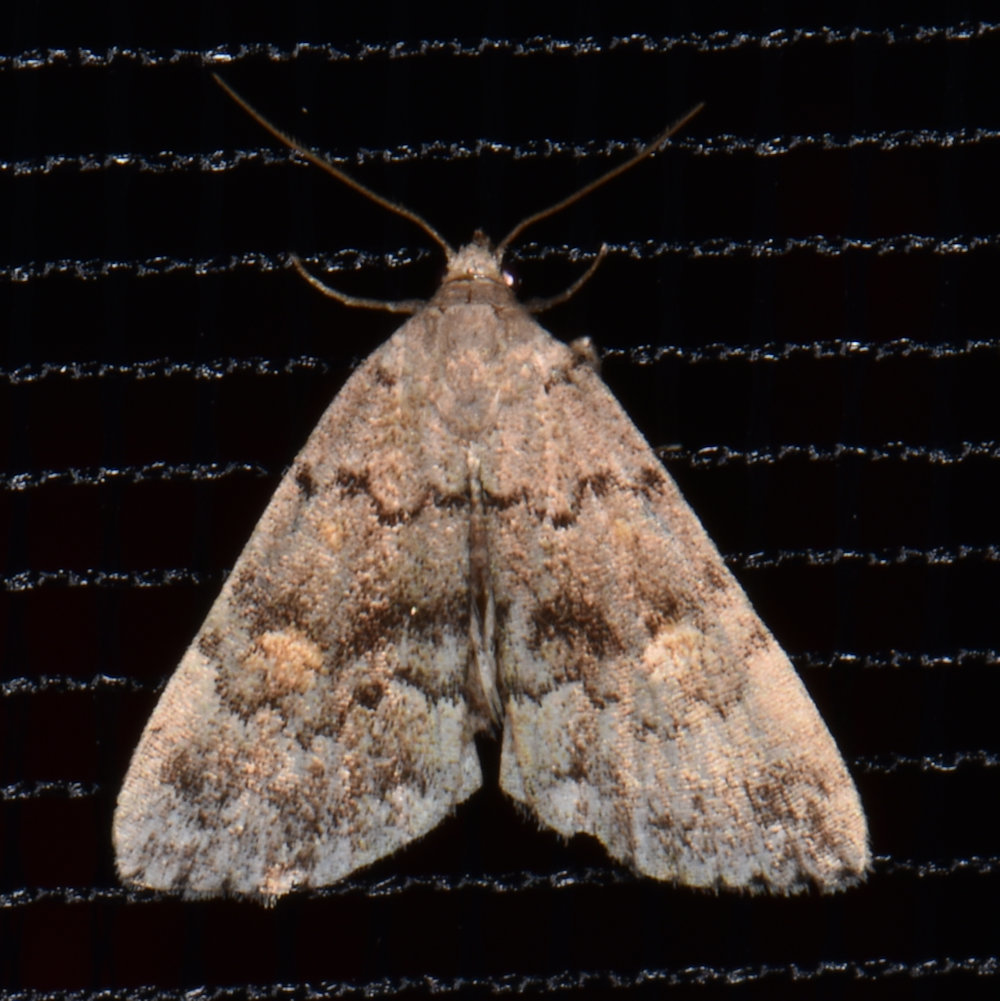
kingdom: Animalia
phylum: Arthropoda
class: Insecta
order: Lepidoptera
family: Erebidae
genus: Idia
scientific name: Idia aemula
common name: Common idia moth
